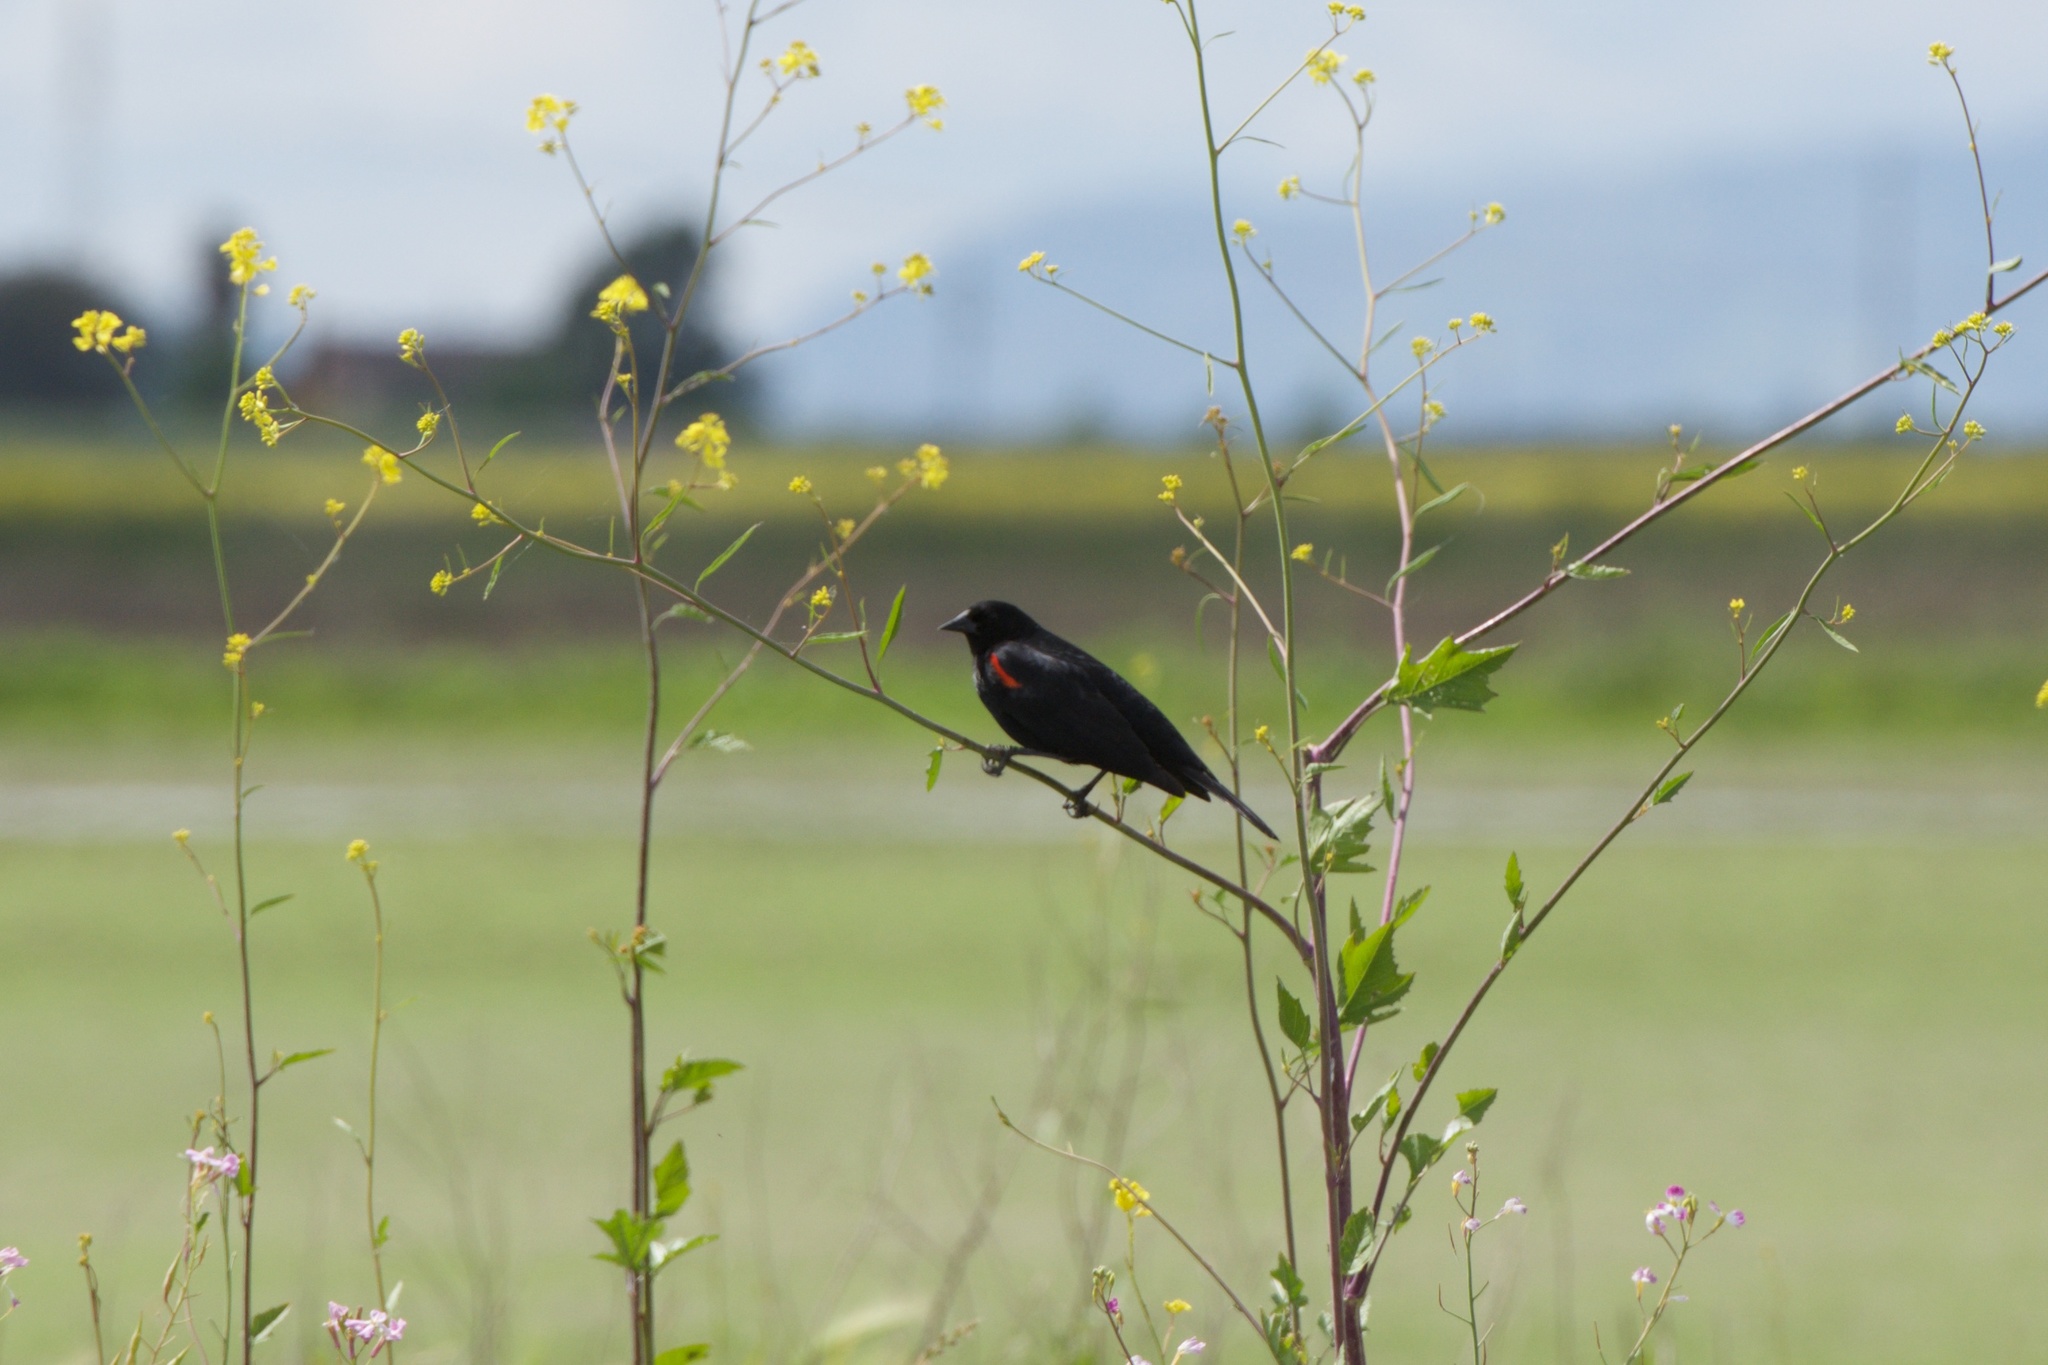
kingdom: Animalia
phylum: Chordata
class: Aves
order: Passeriformes
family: Icteridae
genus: Agelaius
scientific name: Agelaius phoeniceus
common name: Red-winged blackbird
